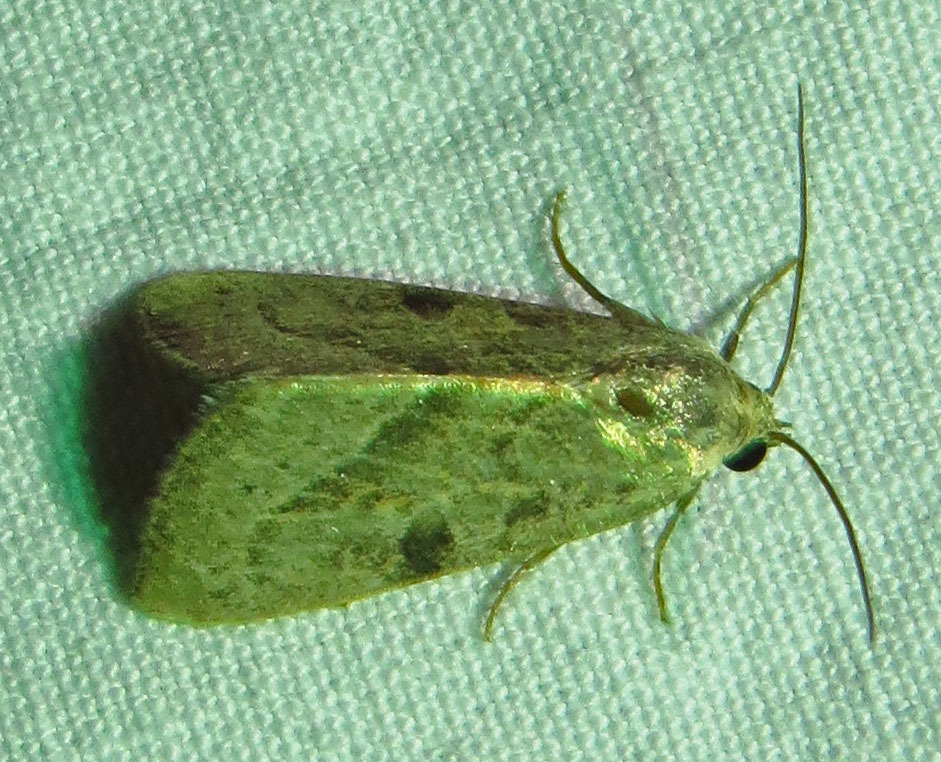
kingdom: Animalia
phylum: Arthropoda
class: Insecta
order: Lepidoptera
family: Noctuidae
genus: Galgula
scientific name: Galgula partita
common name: Wedgeling
